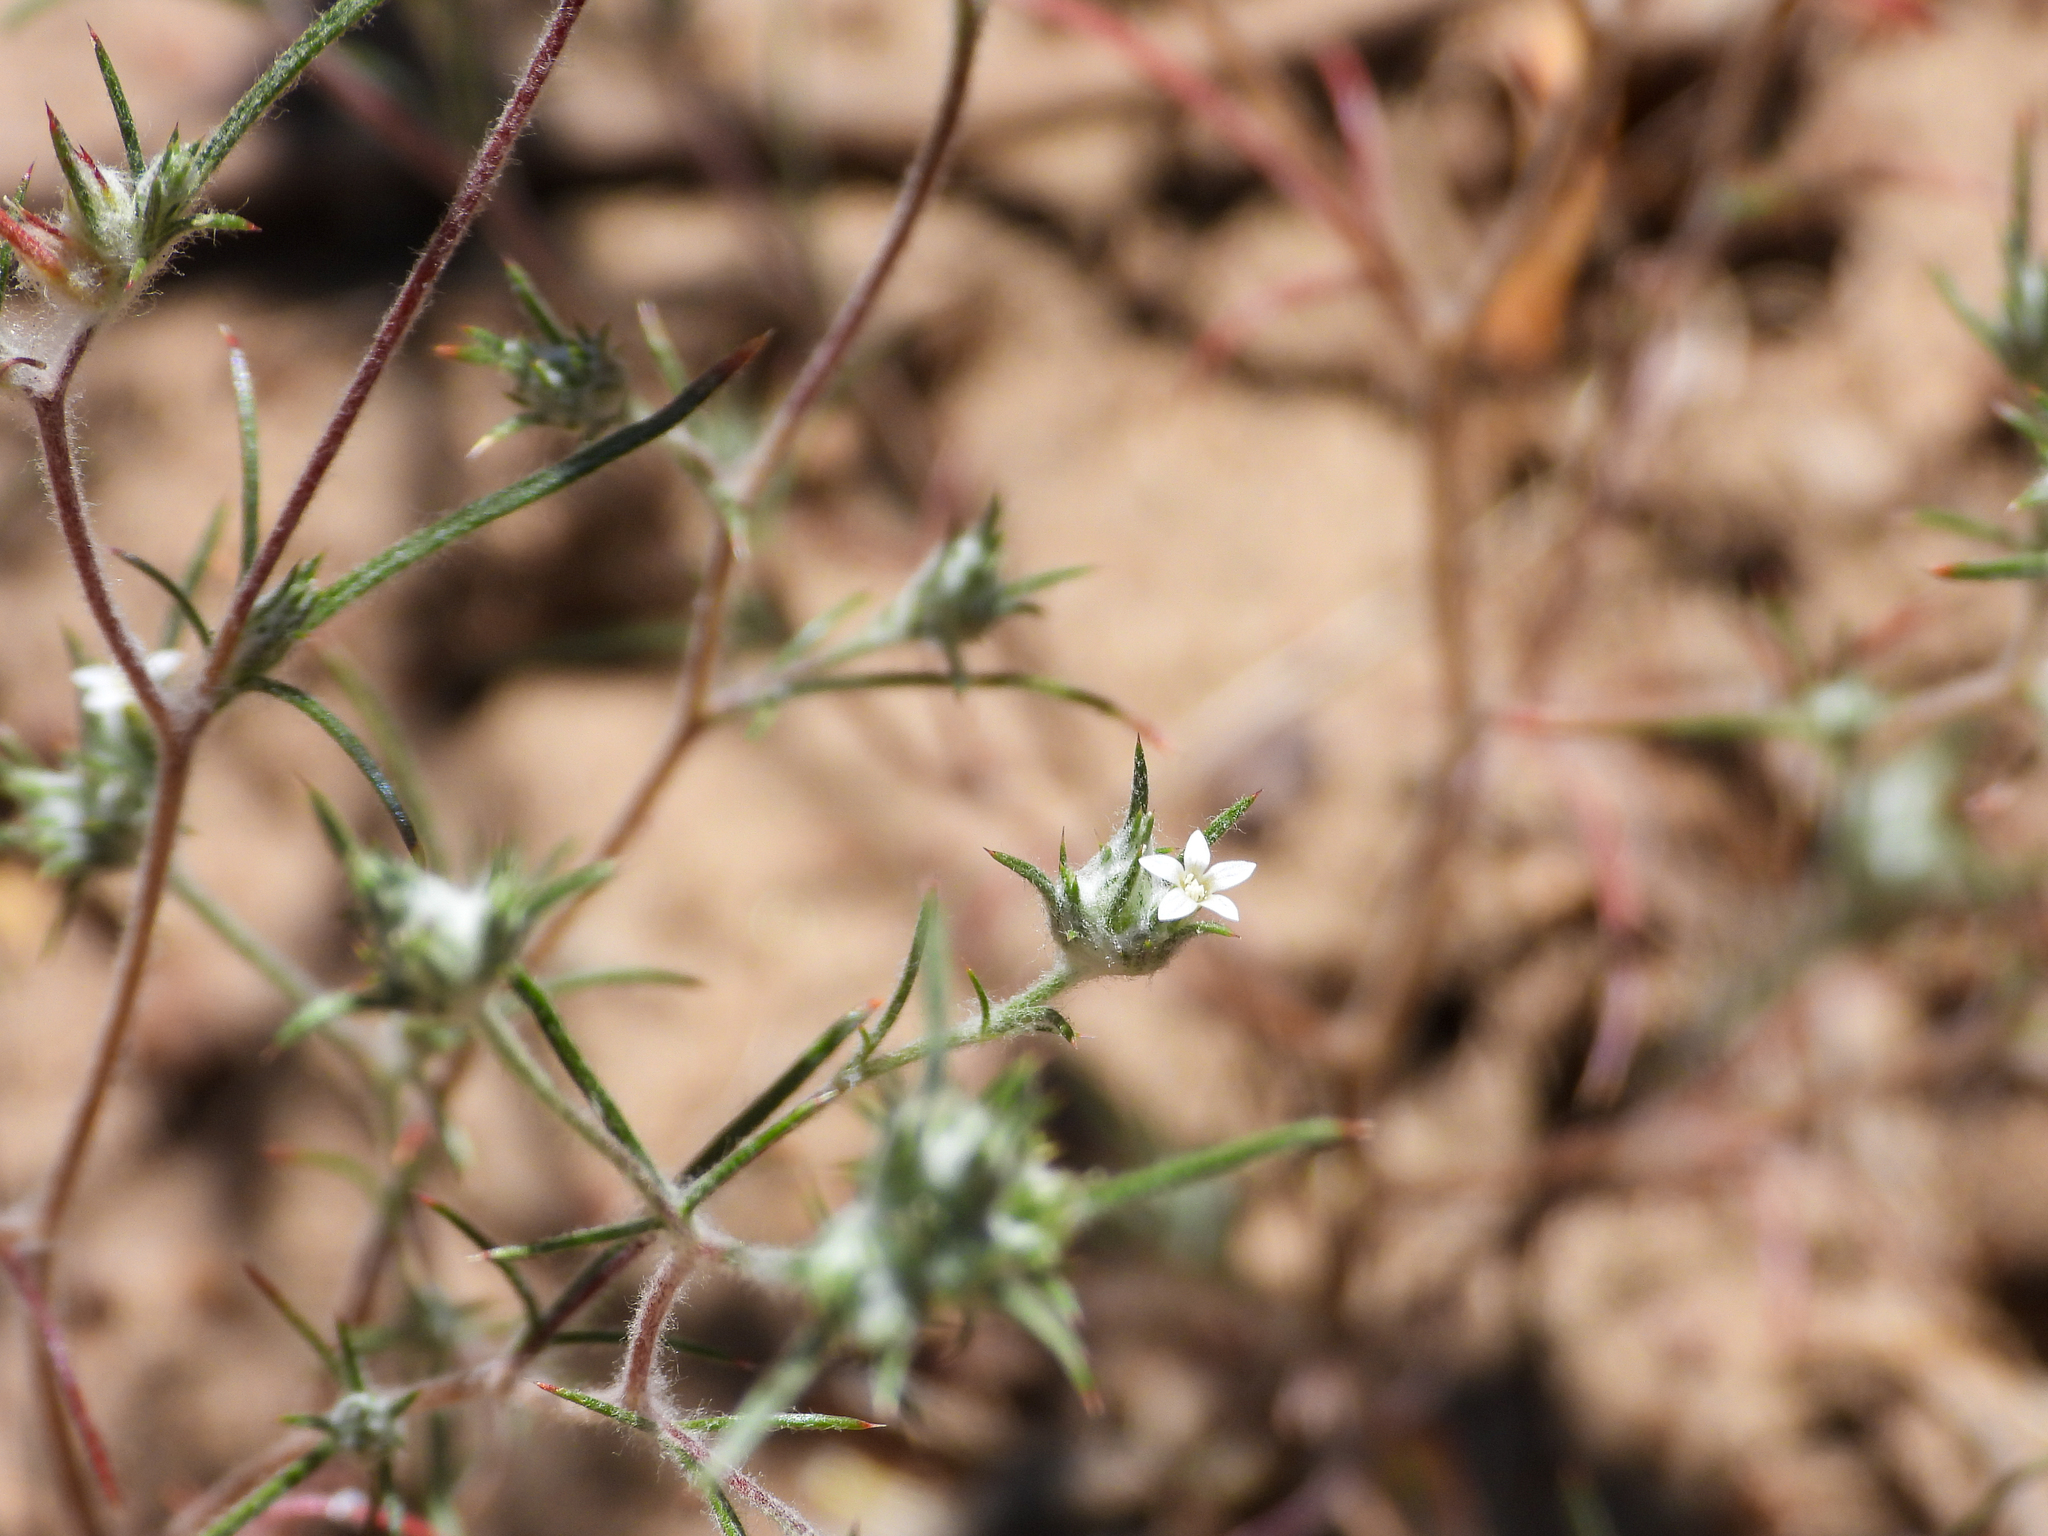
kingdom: Plantae
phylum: Tracheophyta
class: Magnoliopsida
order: Ericales
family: Polemoniaceae
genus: Eriastrum
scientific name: Eriastrum tracyi
